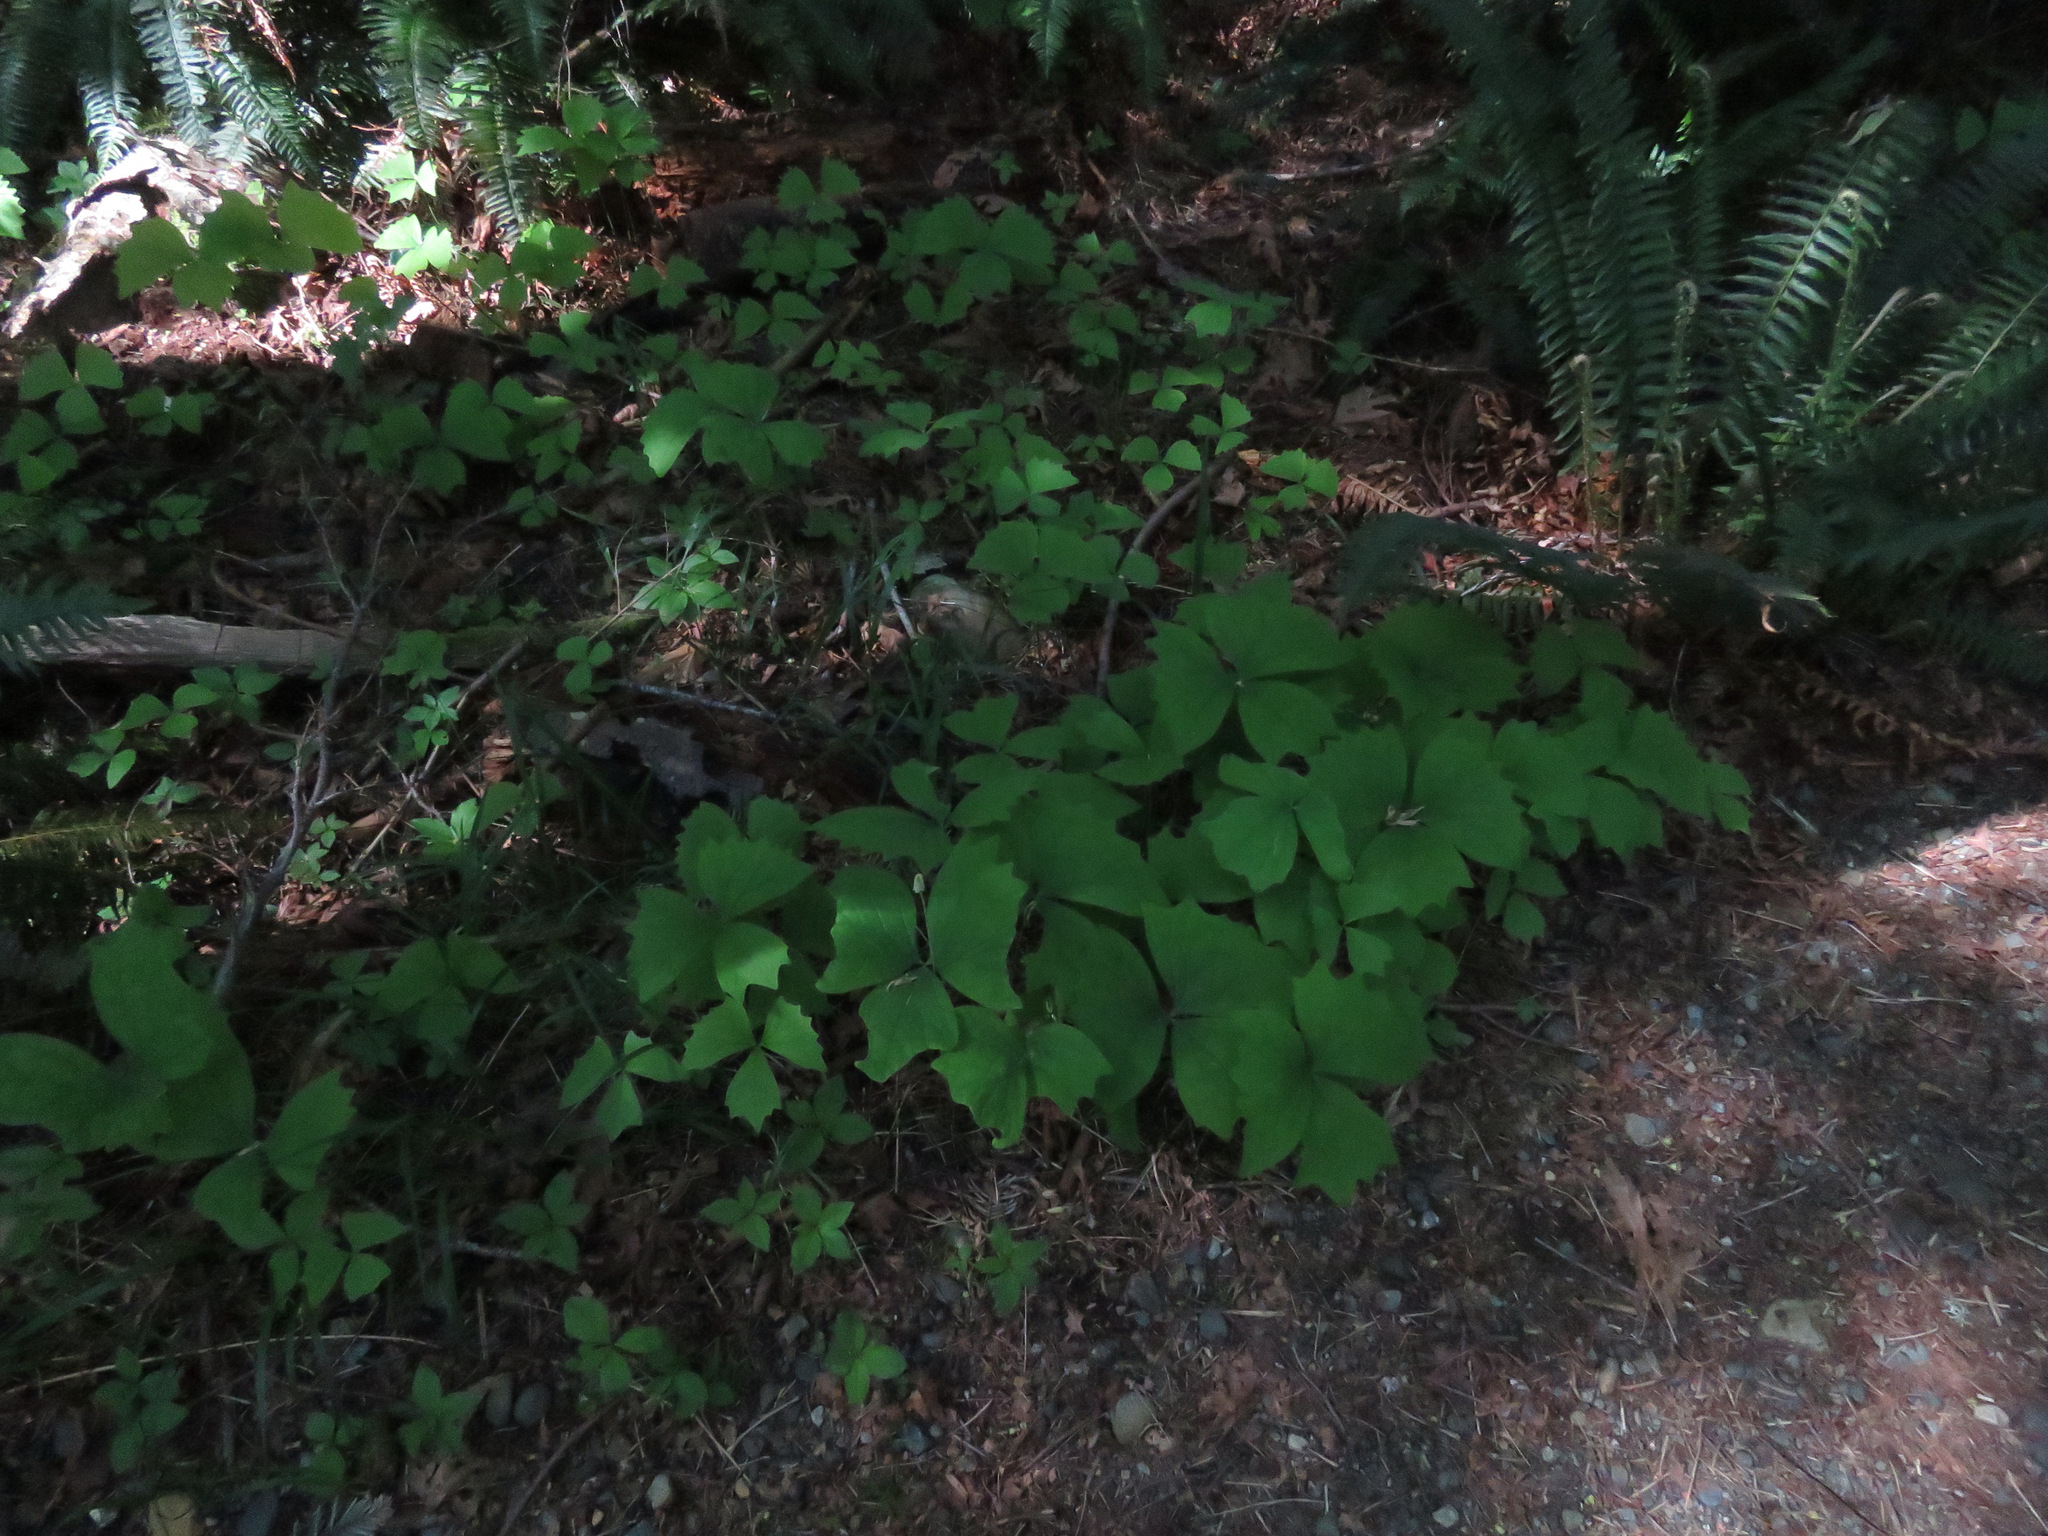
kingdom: Plantae
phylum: Tracheophyta
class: Magnoliopsida
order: Ranunculales
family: Berberidaceae
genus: Achlys
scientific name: Achlys triphylla
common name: Vanilla-leaf
